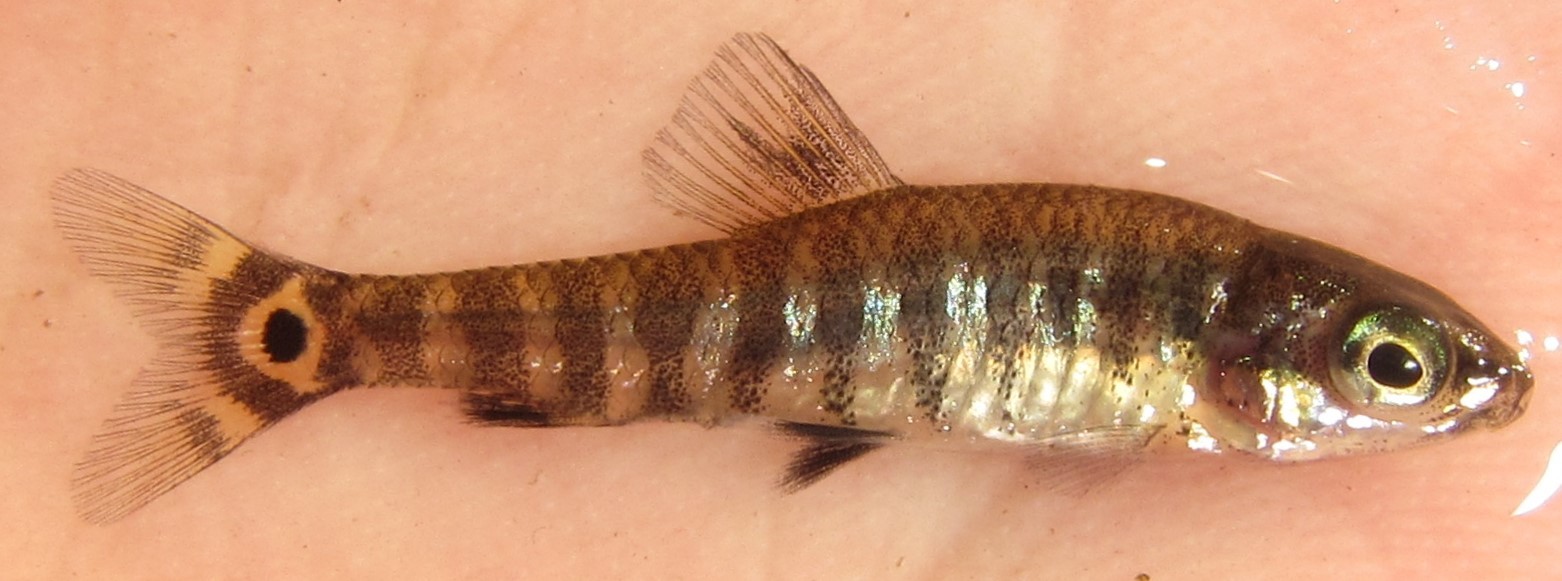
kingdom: Animalia
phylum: Chordata
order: Characiformes
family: Distichodontidae
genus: Nannocharax
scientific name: Nannocharax machadoi
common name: Dwarf citharine
